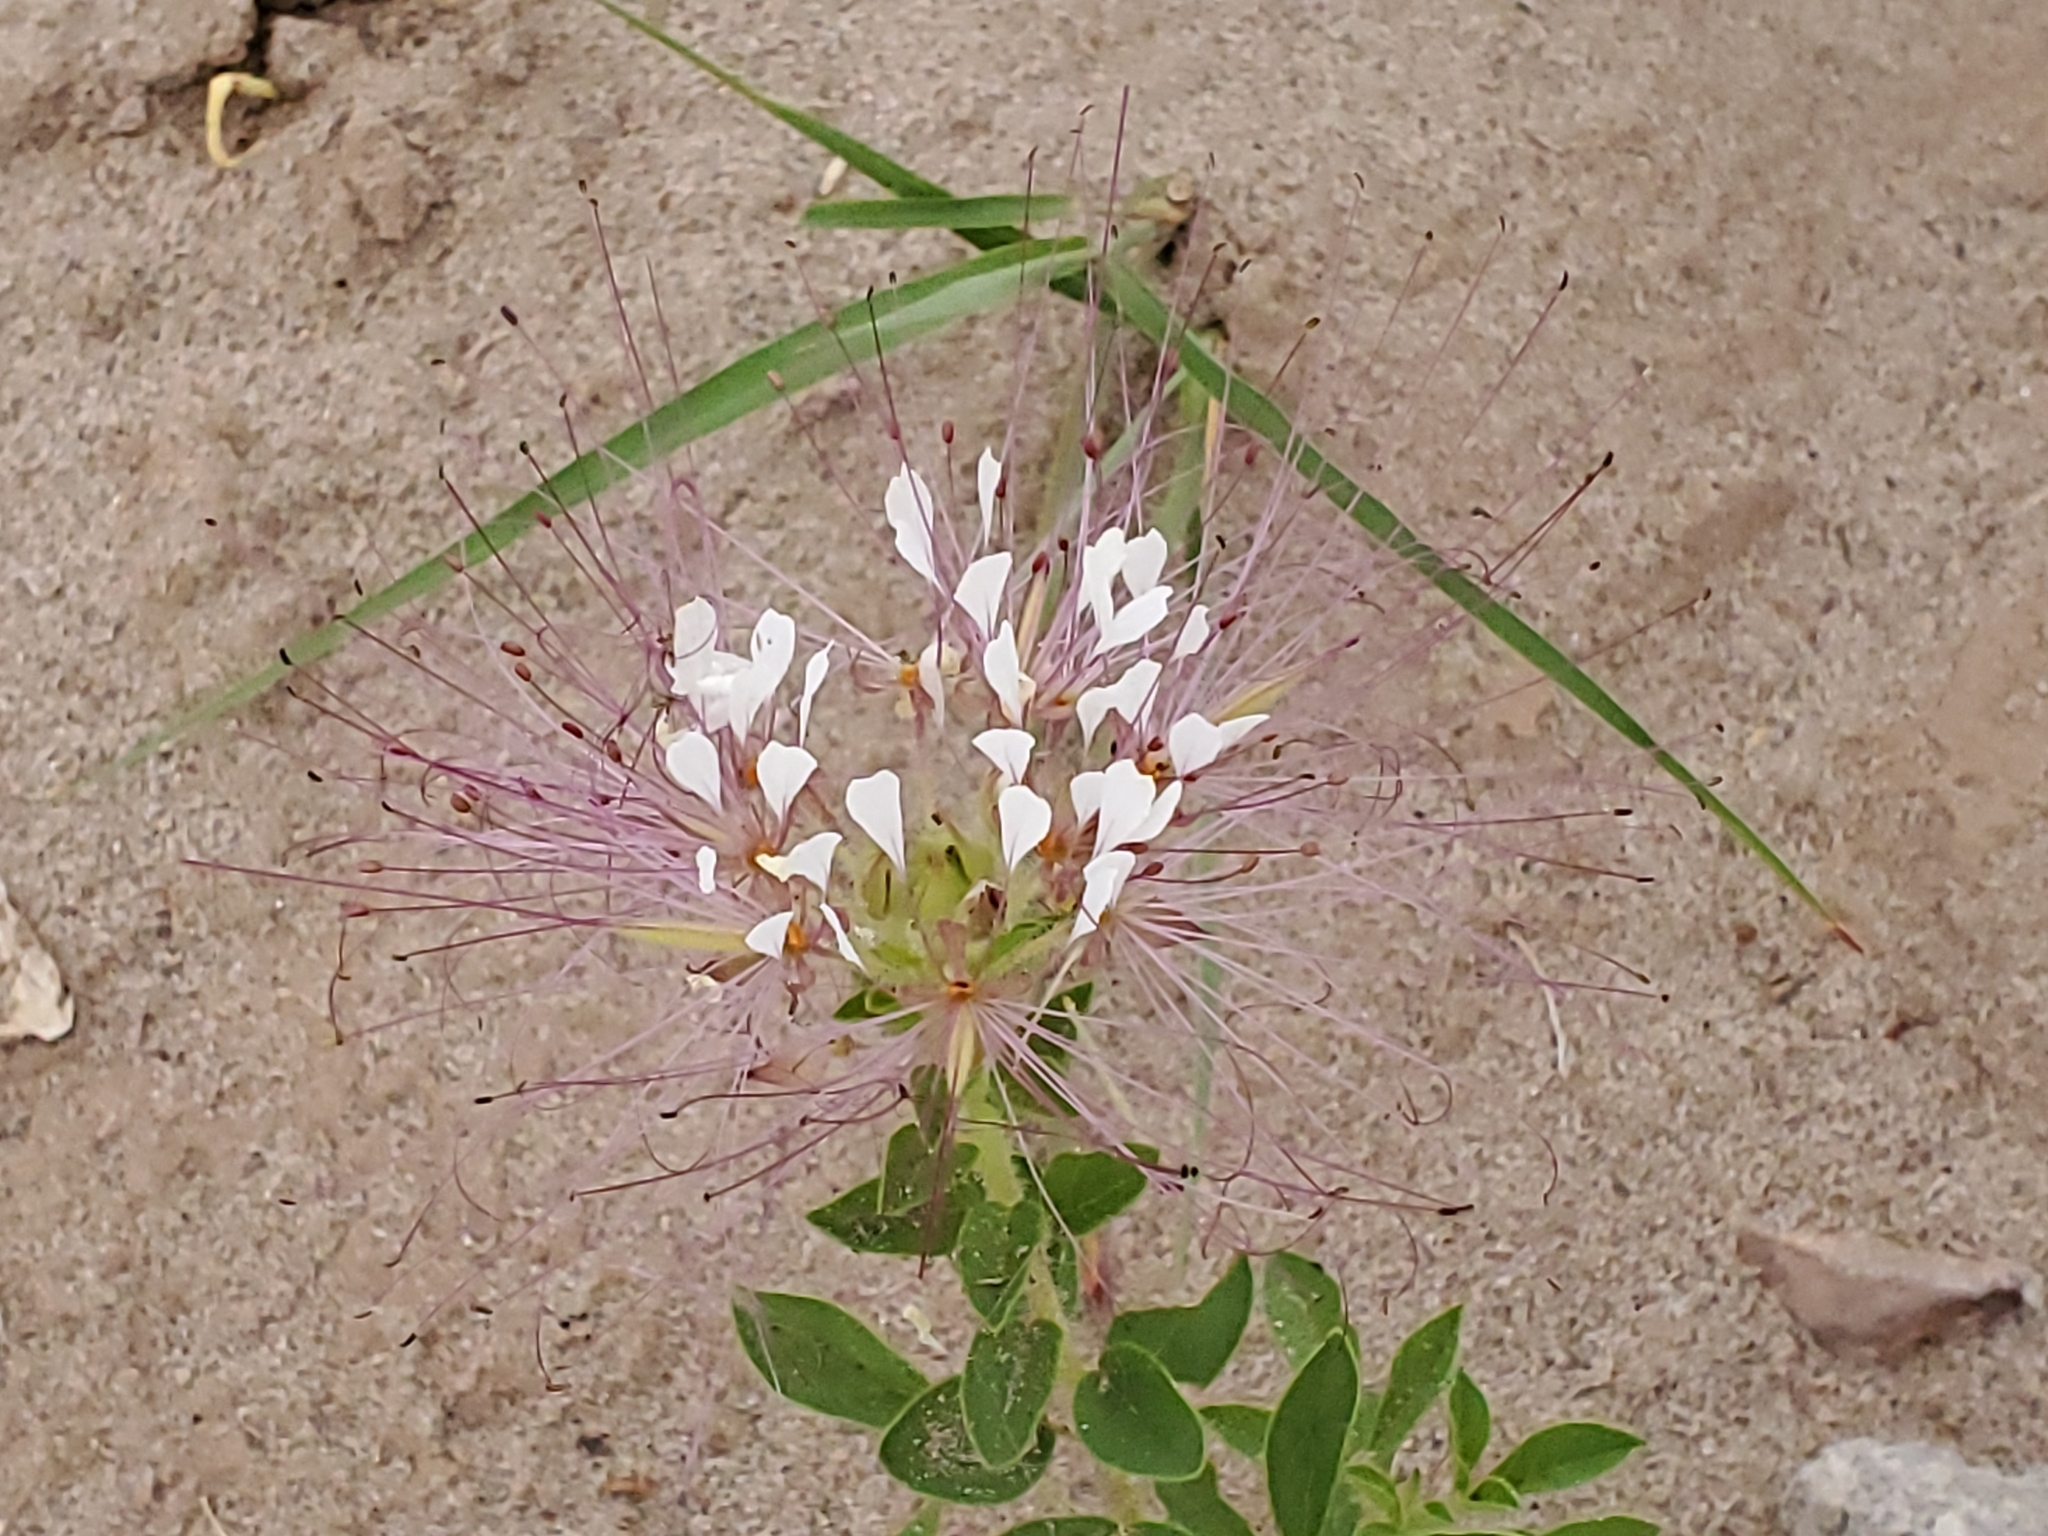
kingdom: Plantae
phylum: Tracheophyta
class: Magnoliopsida
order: Brassicales
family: Cleomaceae
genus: Polanisia
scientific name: Polanisia dodecandra
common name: Clammyweed
